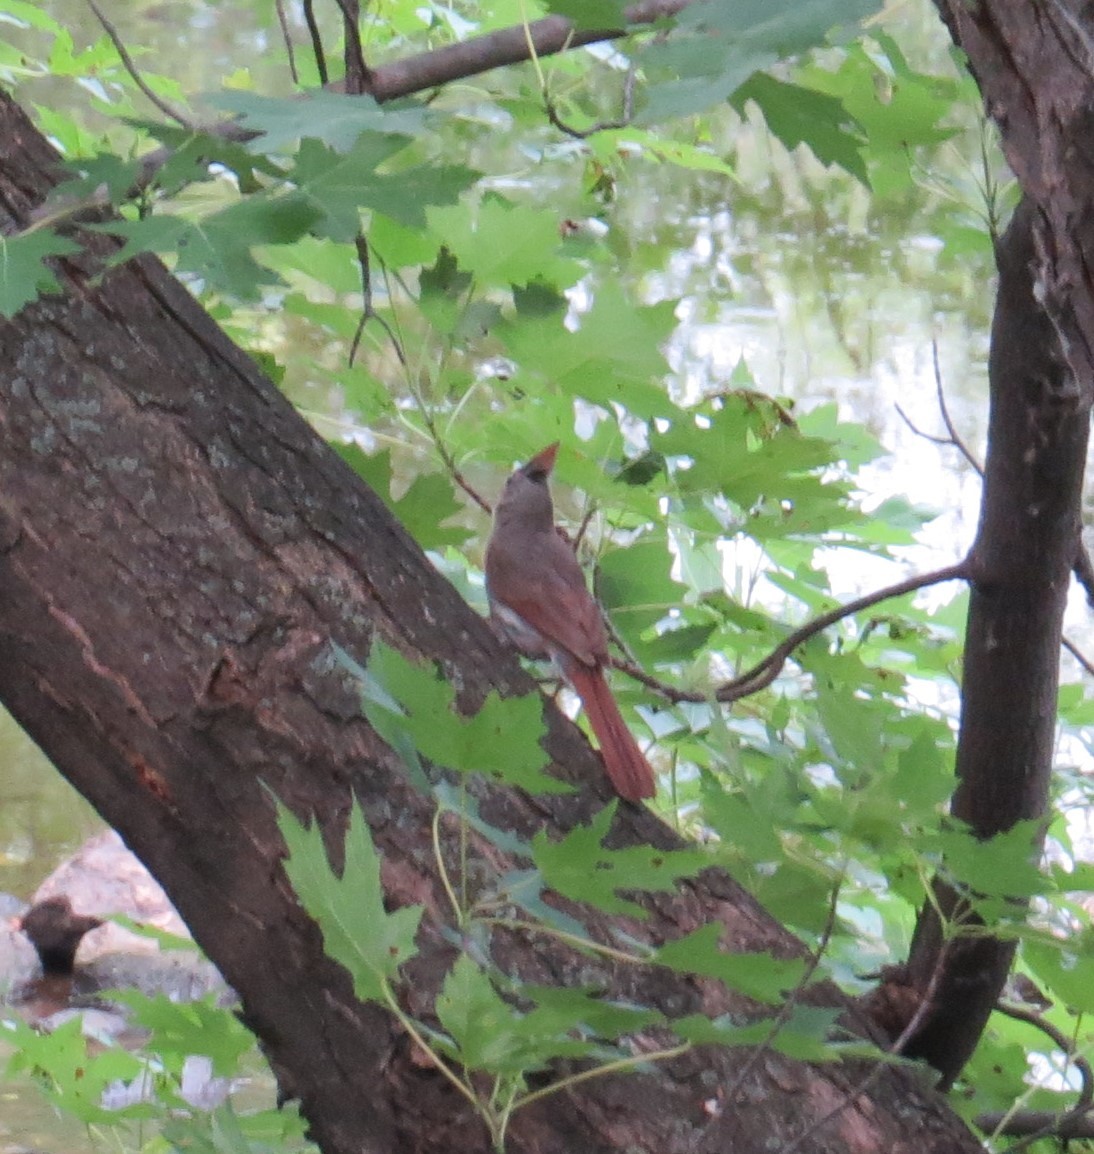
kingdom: Animalia
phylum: Chordata
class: Aves
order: Passeriformes
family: Cardinalidae
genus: Cardinalis
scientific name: Cardinalis cardinalis
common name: Northern cardinal
